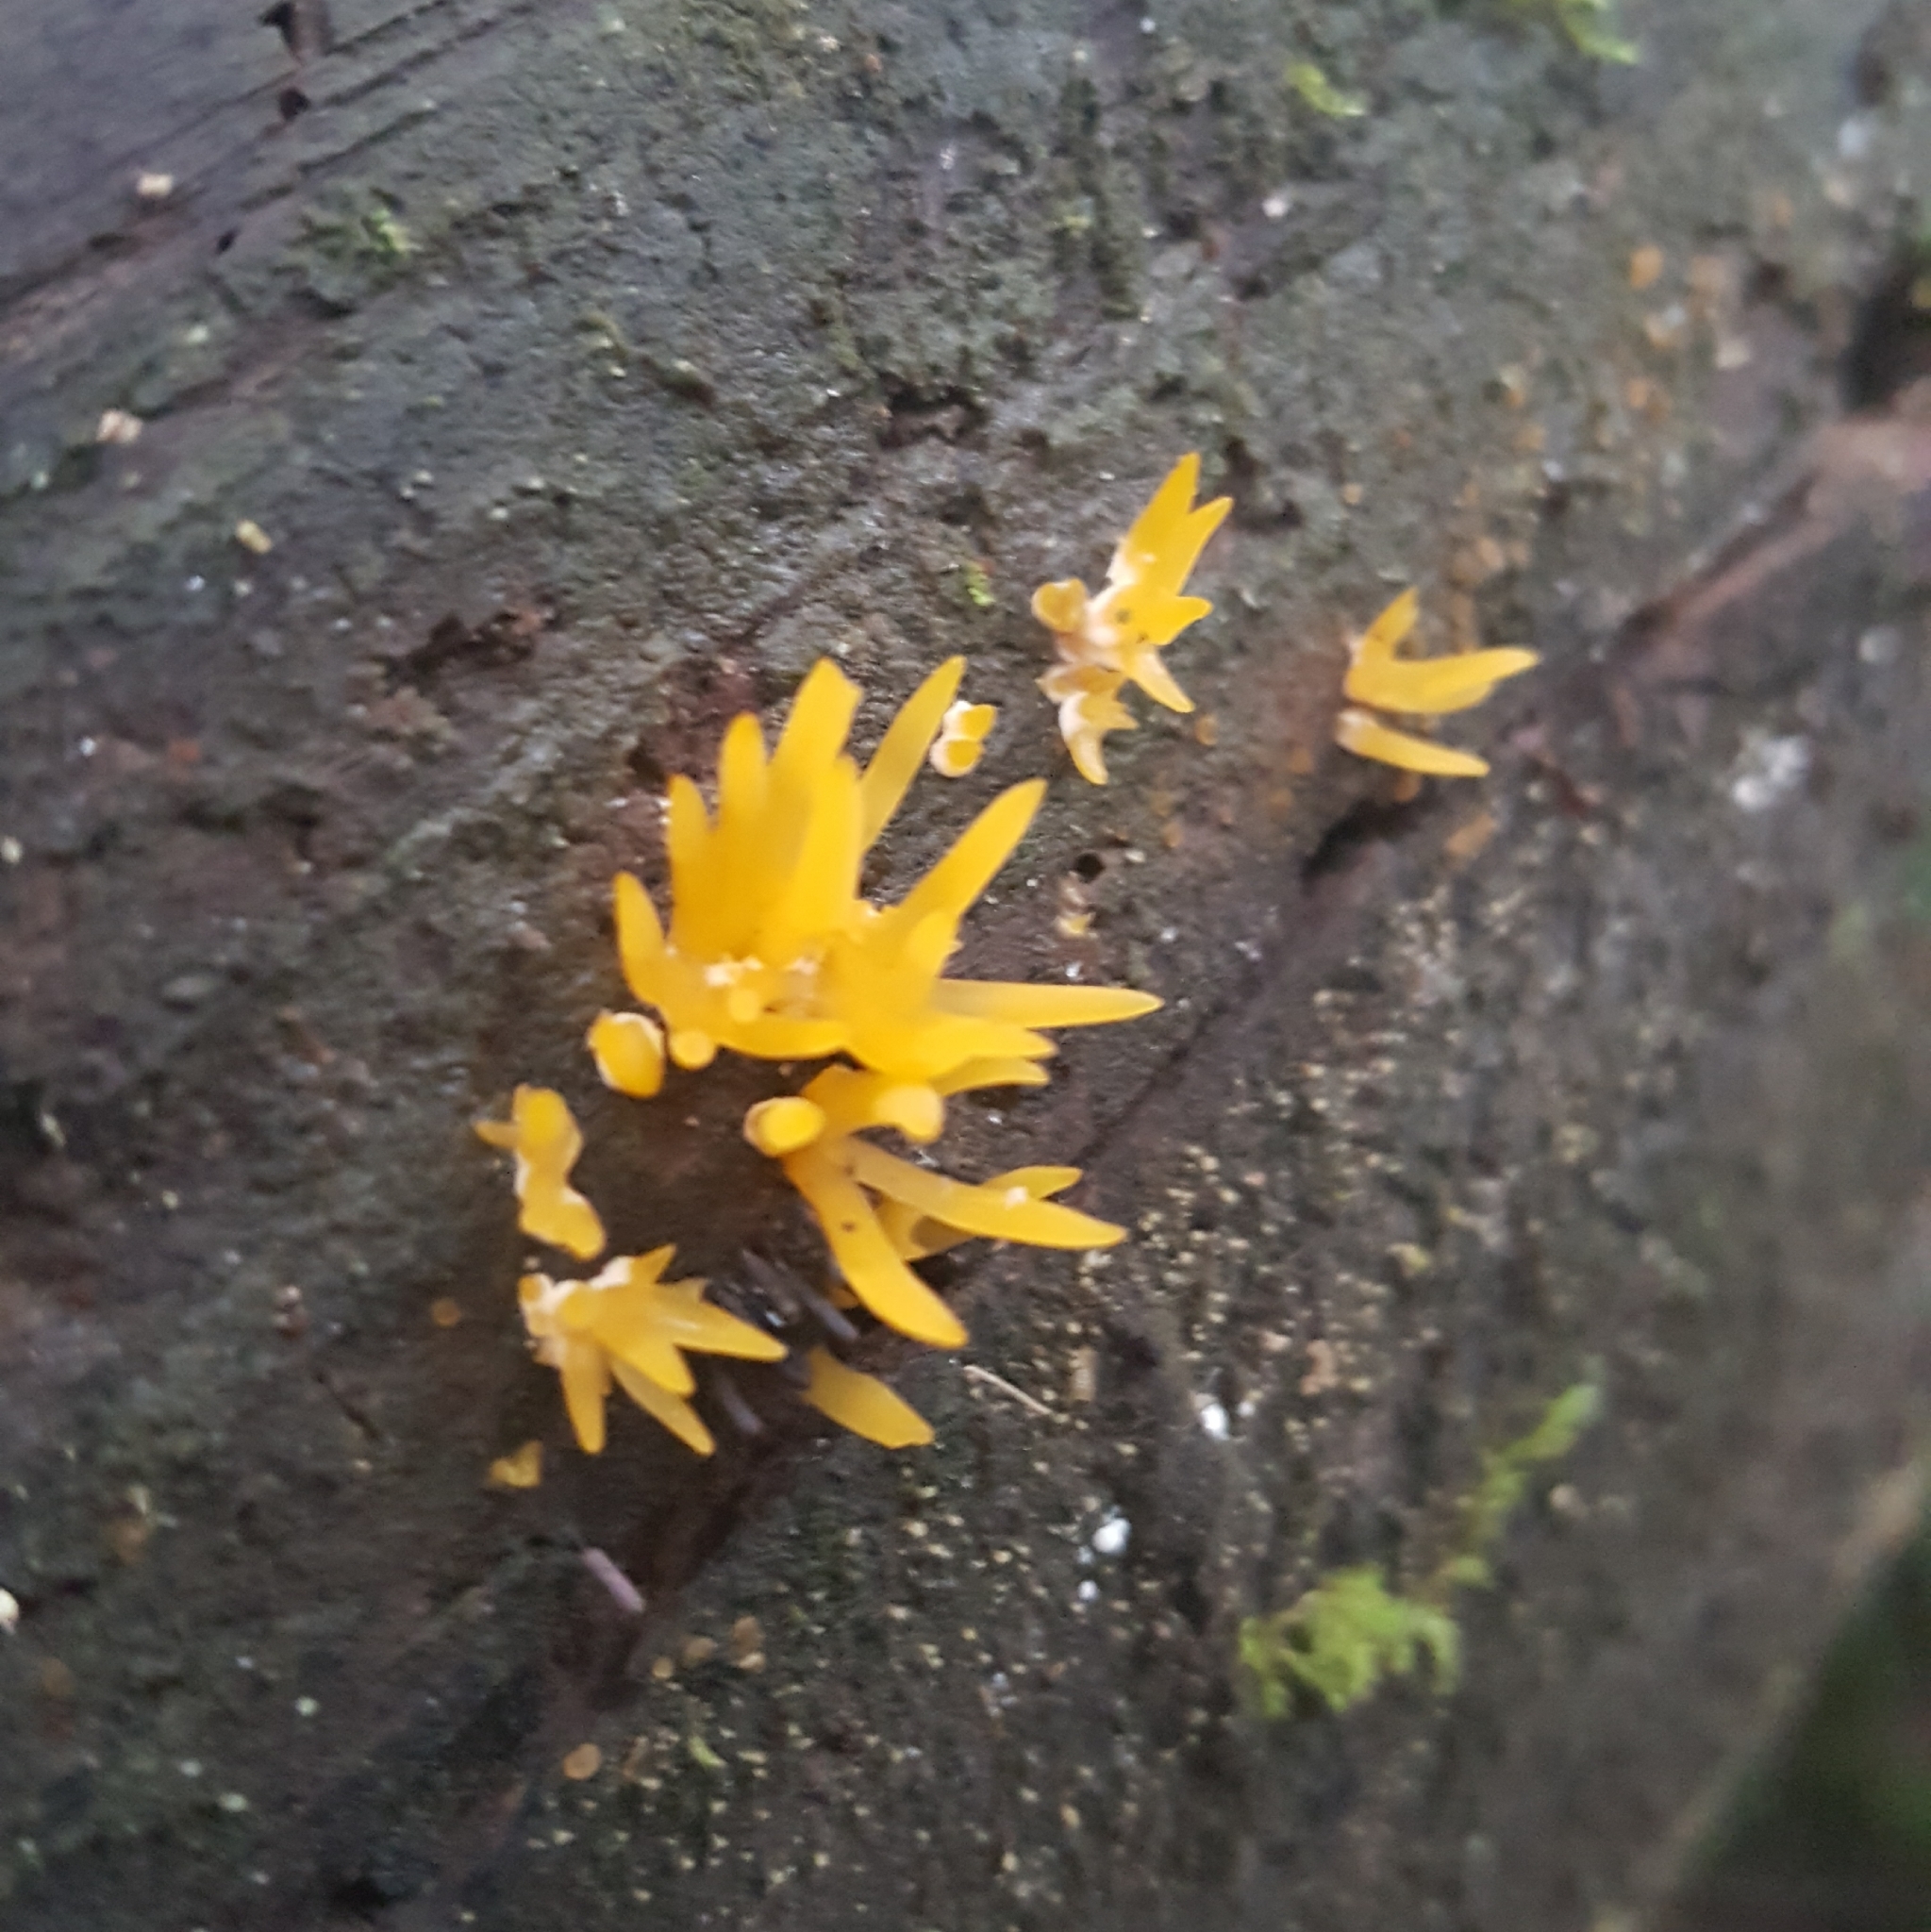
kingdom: Fungi
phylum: Basidiomycota
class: Dacrymycetes
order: Dacrymycetales
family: Dacrymycetaceae
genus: Calocera
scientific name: Calocera cornea
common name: Small stagshorn
